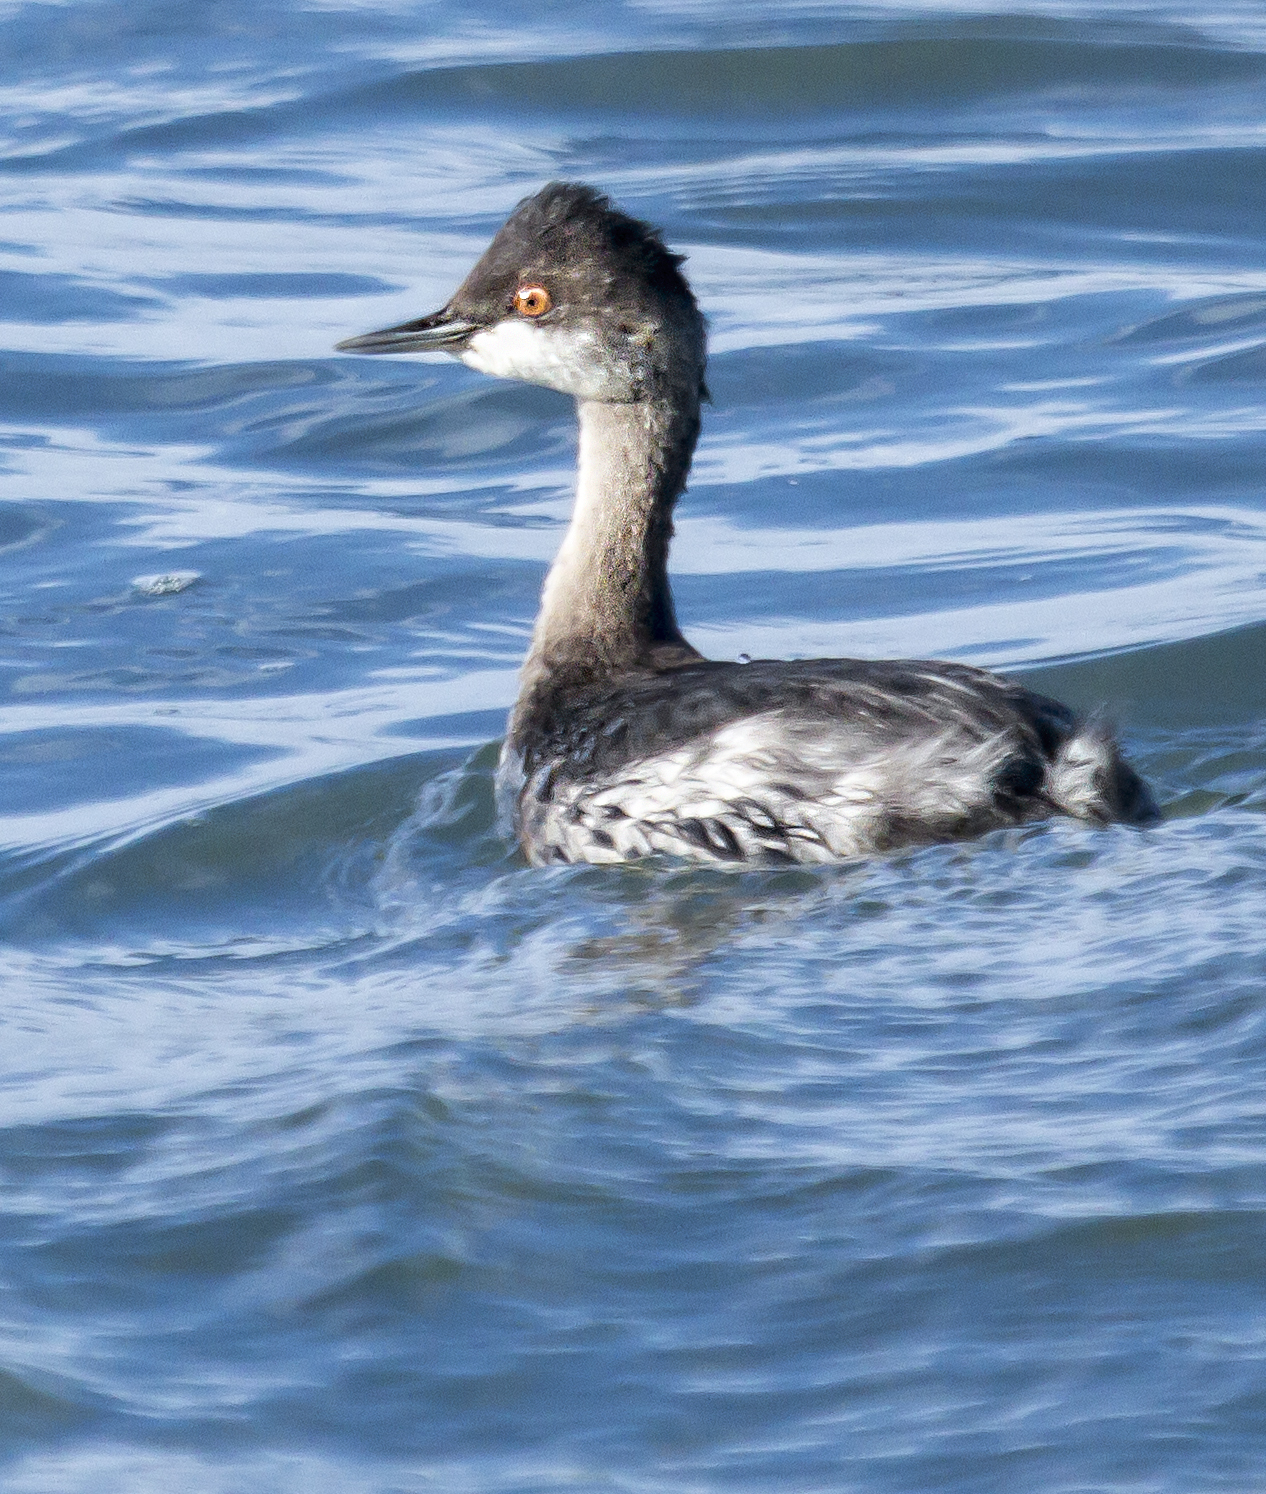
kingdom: Animalia
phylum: Chordata
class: Aves
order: Podicipediformes
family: Podicipedidae
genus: Podiceps
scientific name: Podiceps nigricollis
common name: Black-necked grebe
